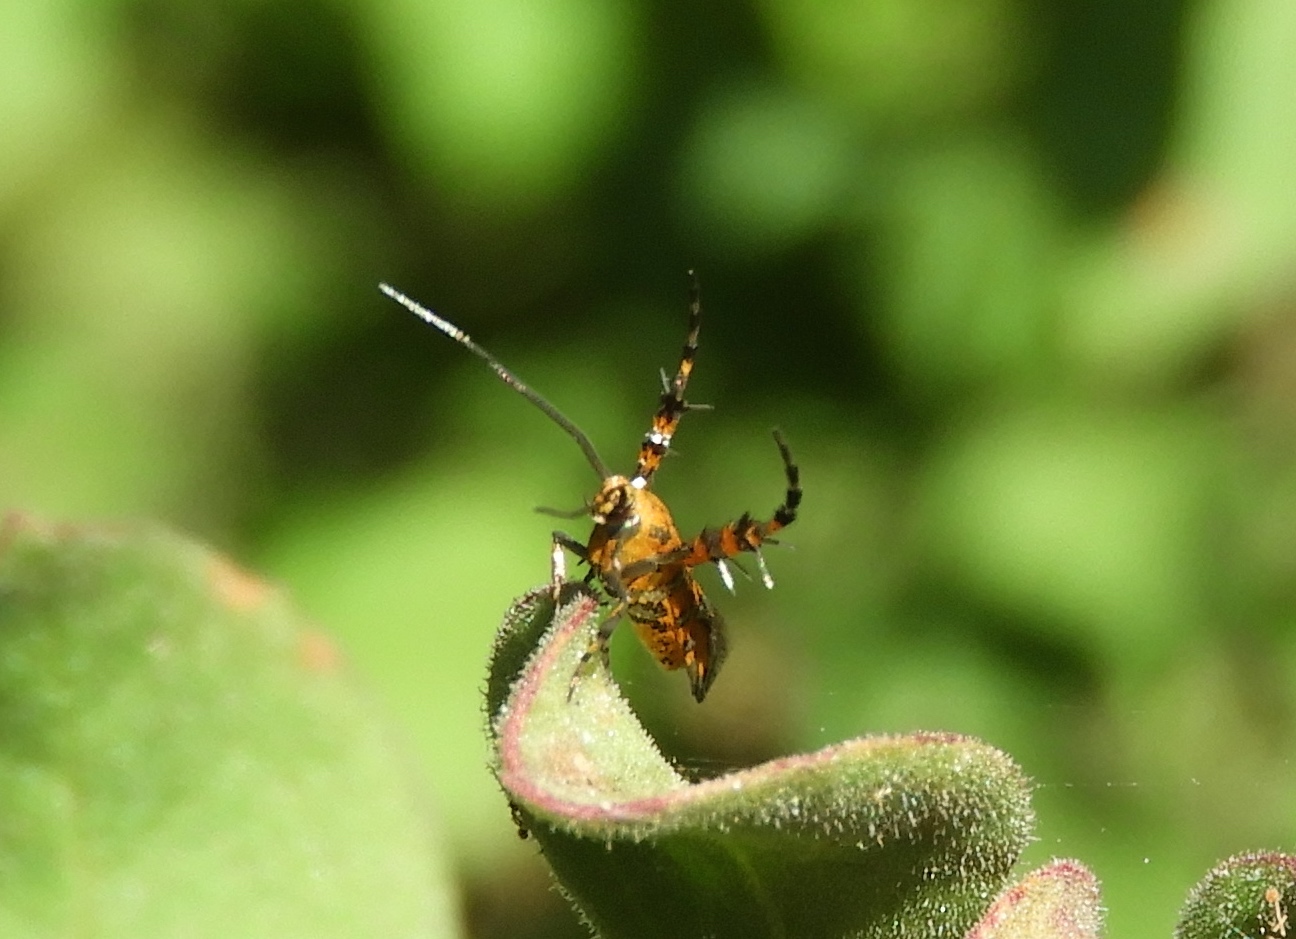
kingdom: Animalia
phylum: Arthropoda
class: Insecta
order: Lepidoptera
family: Heliodinidae
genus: Heliodines
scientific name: Heliodines
